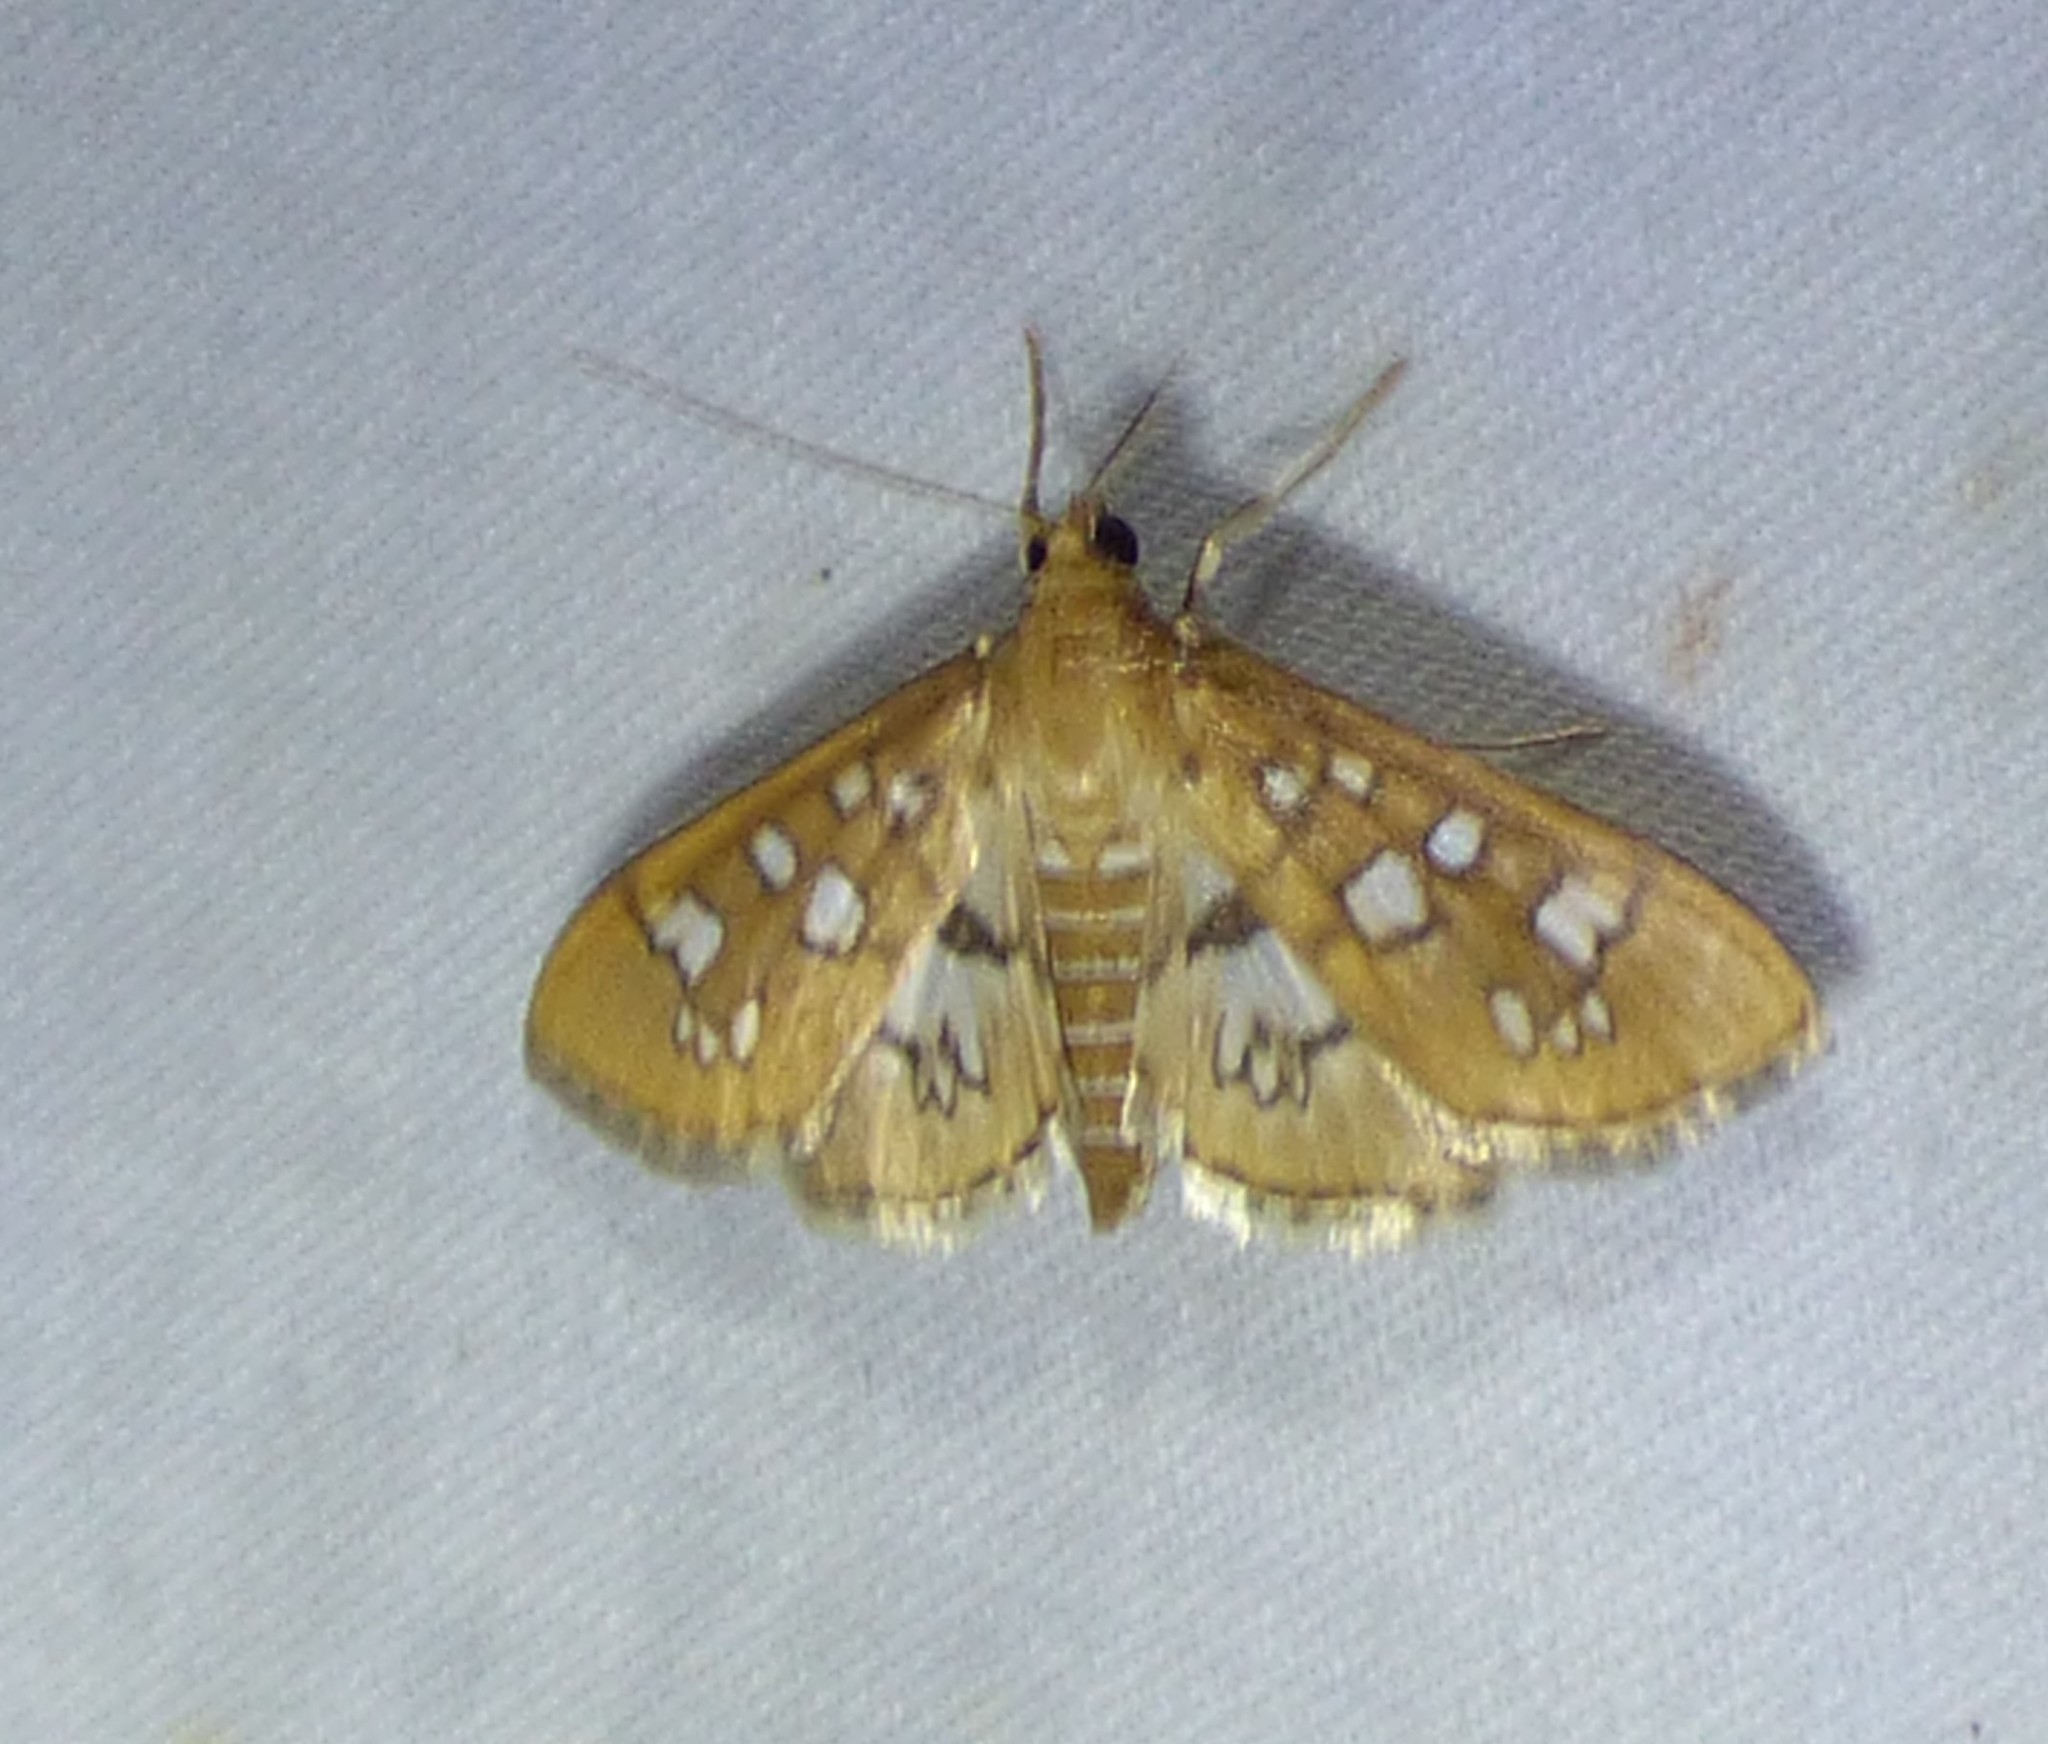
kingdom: Animalia
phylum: Arthropoda
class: Insecta
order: Lepidoptera
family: Crambidae
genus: Samea
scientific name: Samea baccatalis
